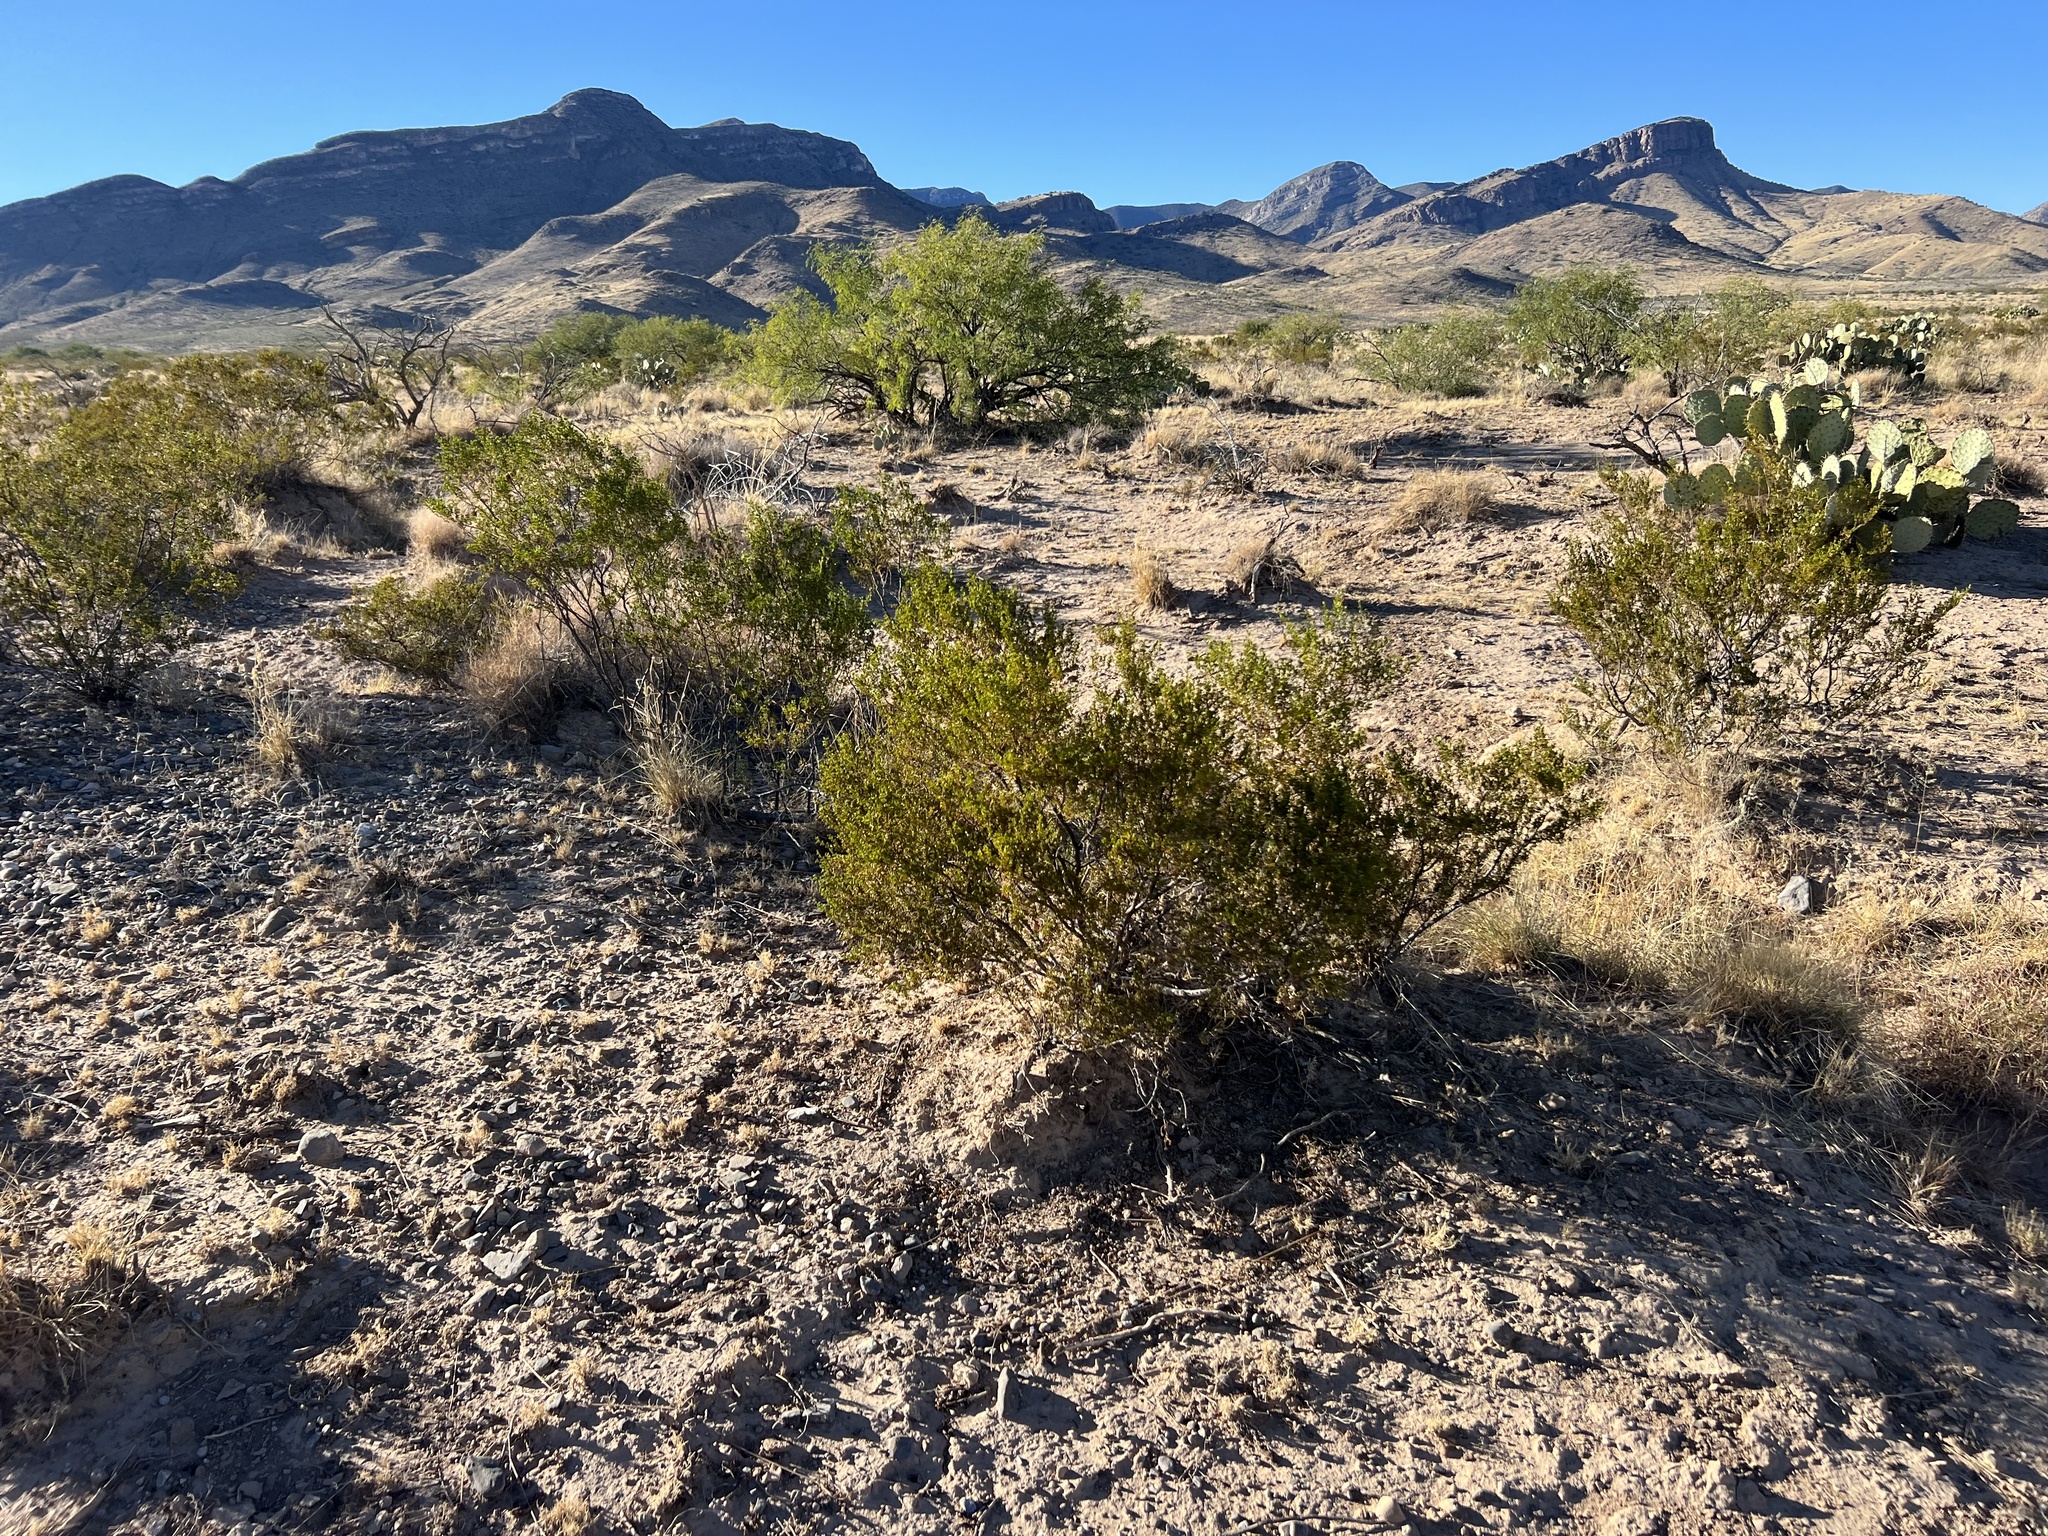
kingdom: Plantae
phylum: Tracheophyta
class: Magnoliopsida
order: Zygophyllales
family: Zygophyllaceae
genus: Larrea
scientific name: Larrea tridentata
